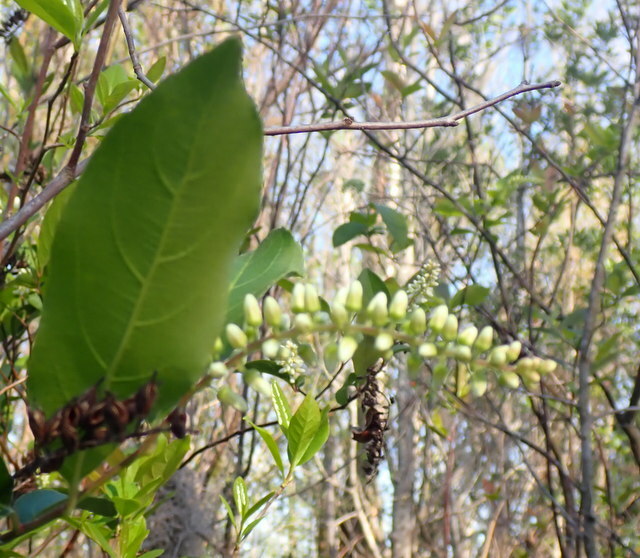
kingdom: Plantae
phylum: Tracheophyta
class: Magnoliopsida
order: Saxifragales
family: Iteaceae
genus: Itea
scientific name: Itea virginica
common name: Sweetspire
